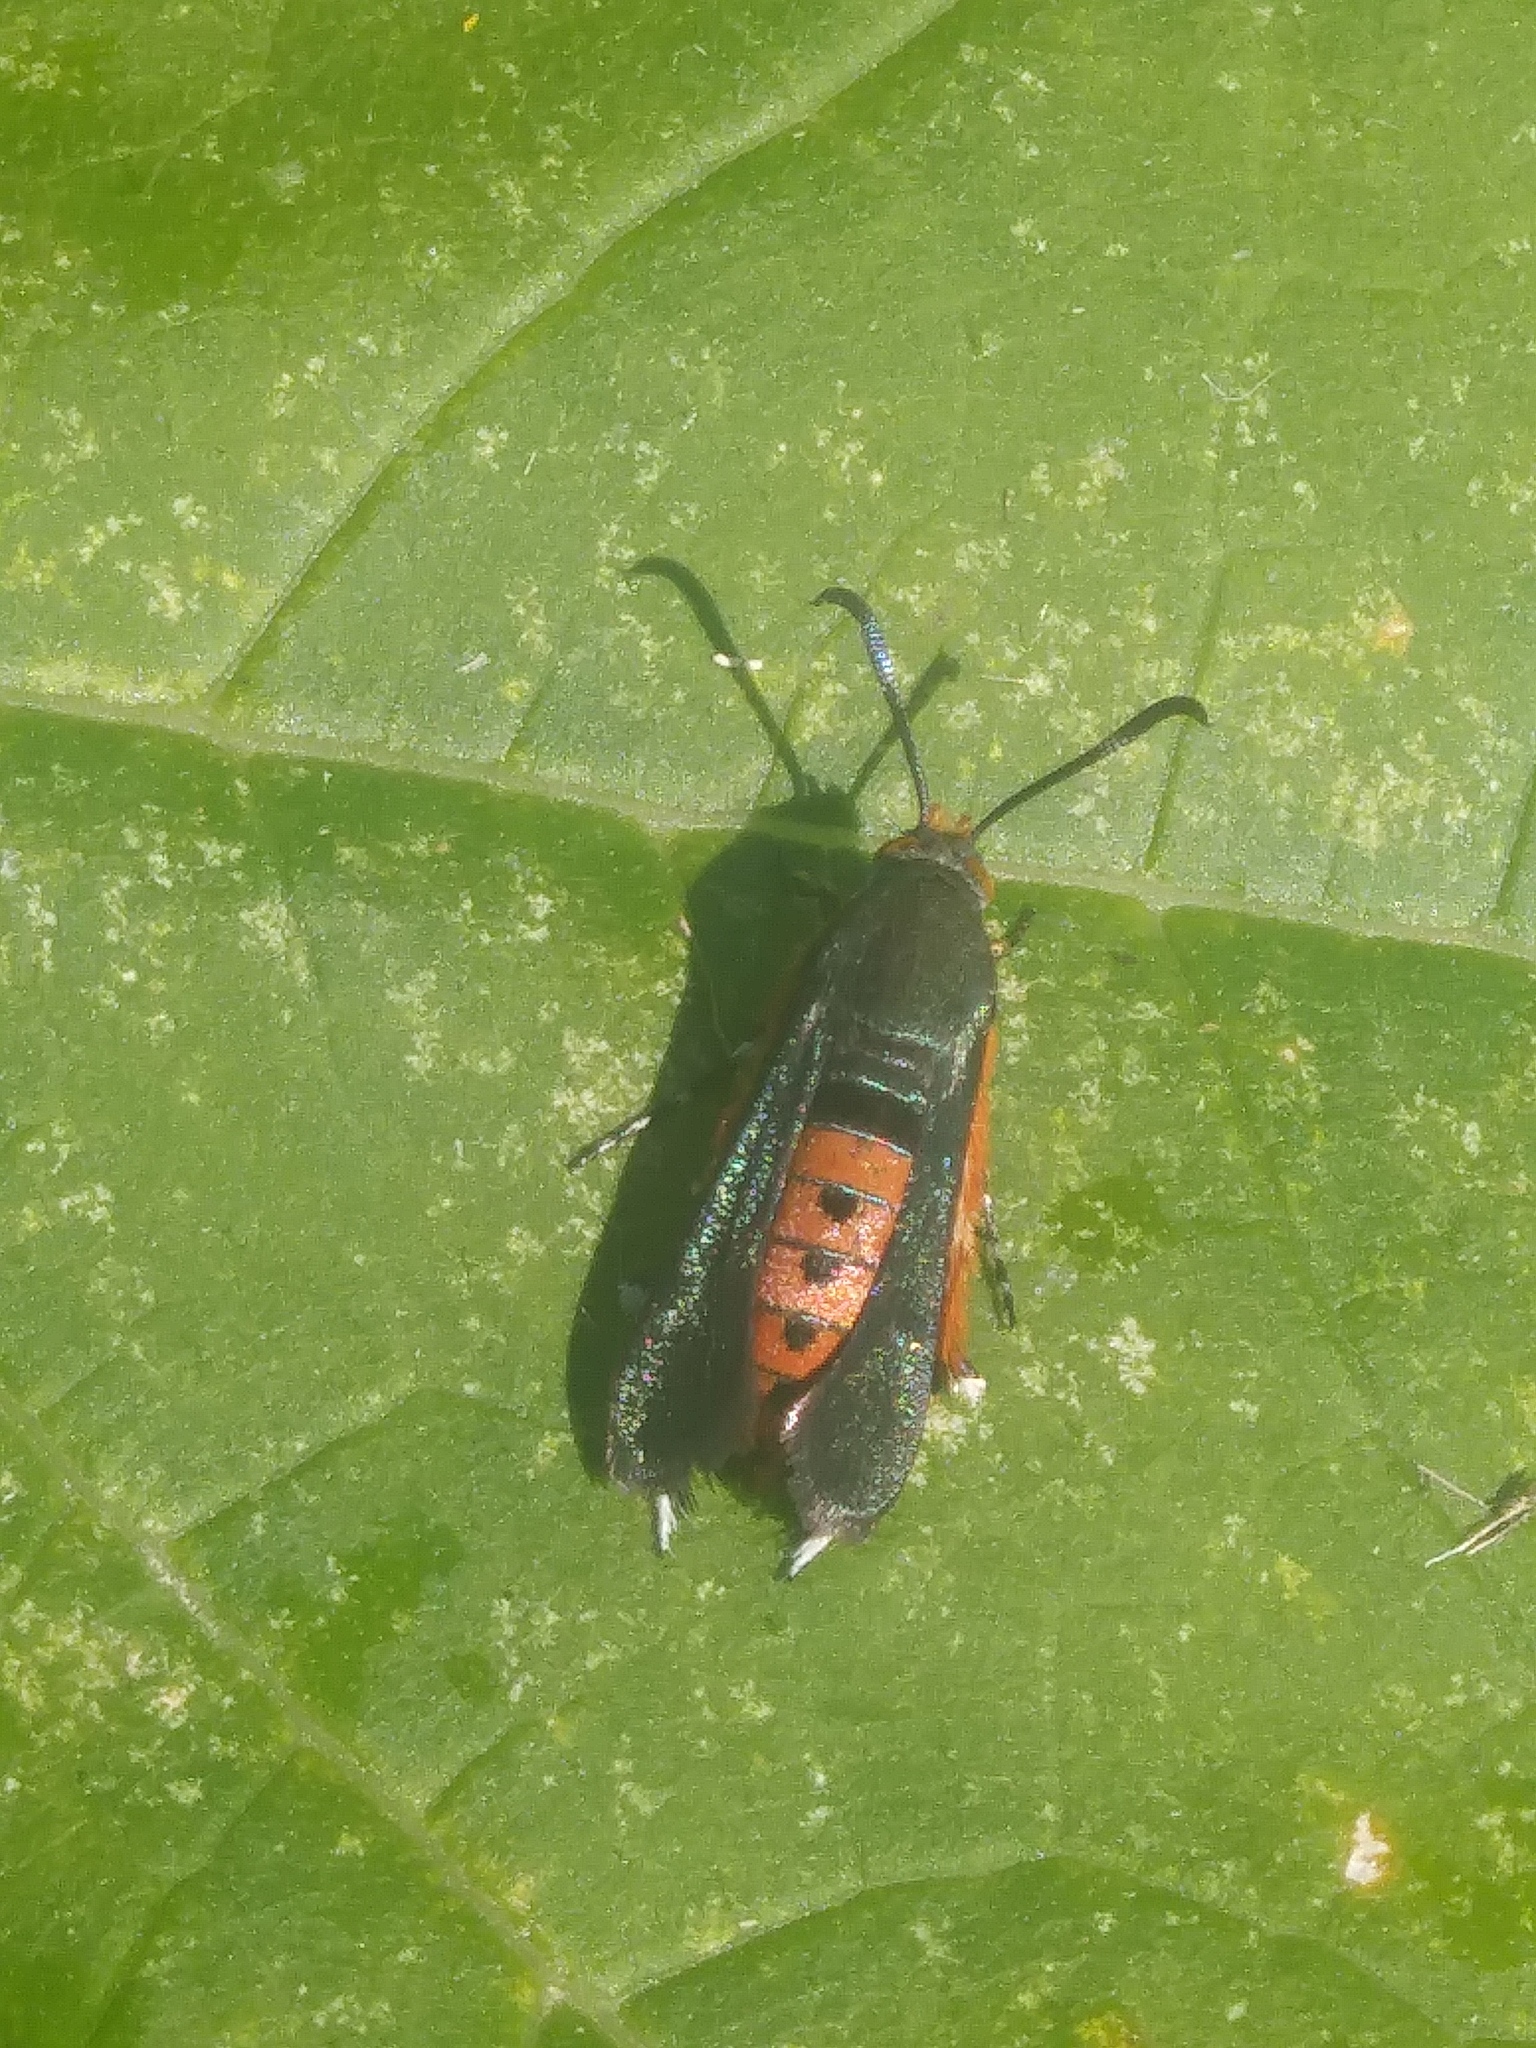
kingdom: Animalia
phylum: Arthropoda
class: Insecta
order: Lepidoptera
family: Sesiidae
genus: Eichlinia
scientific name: Eichlinia cucurbitae
